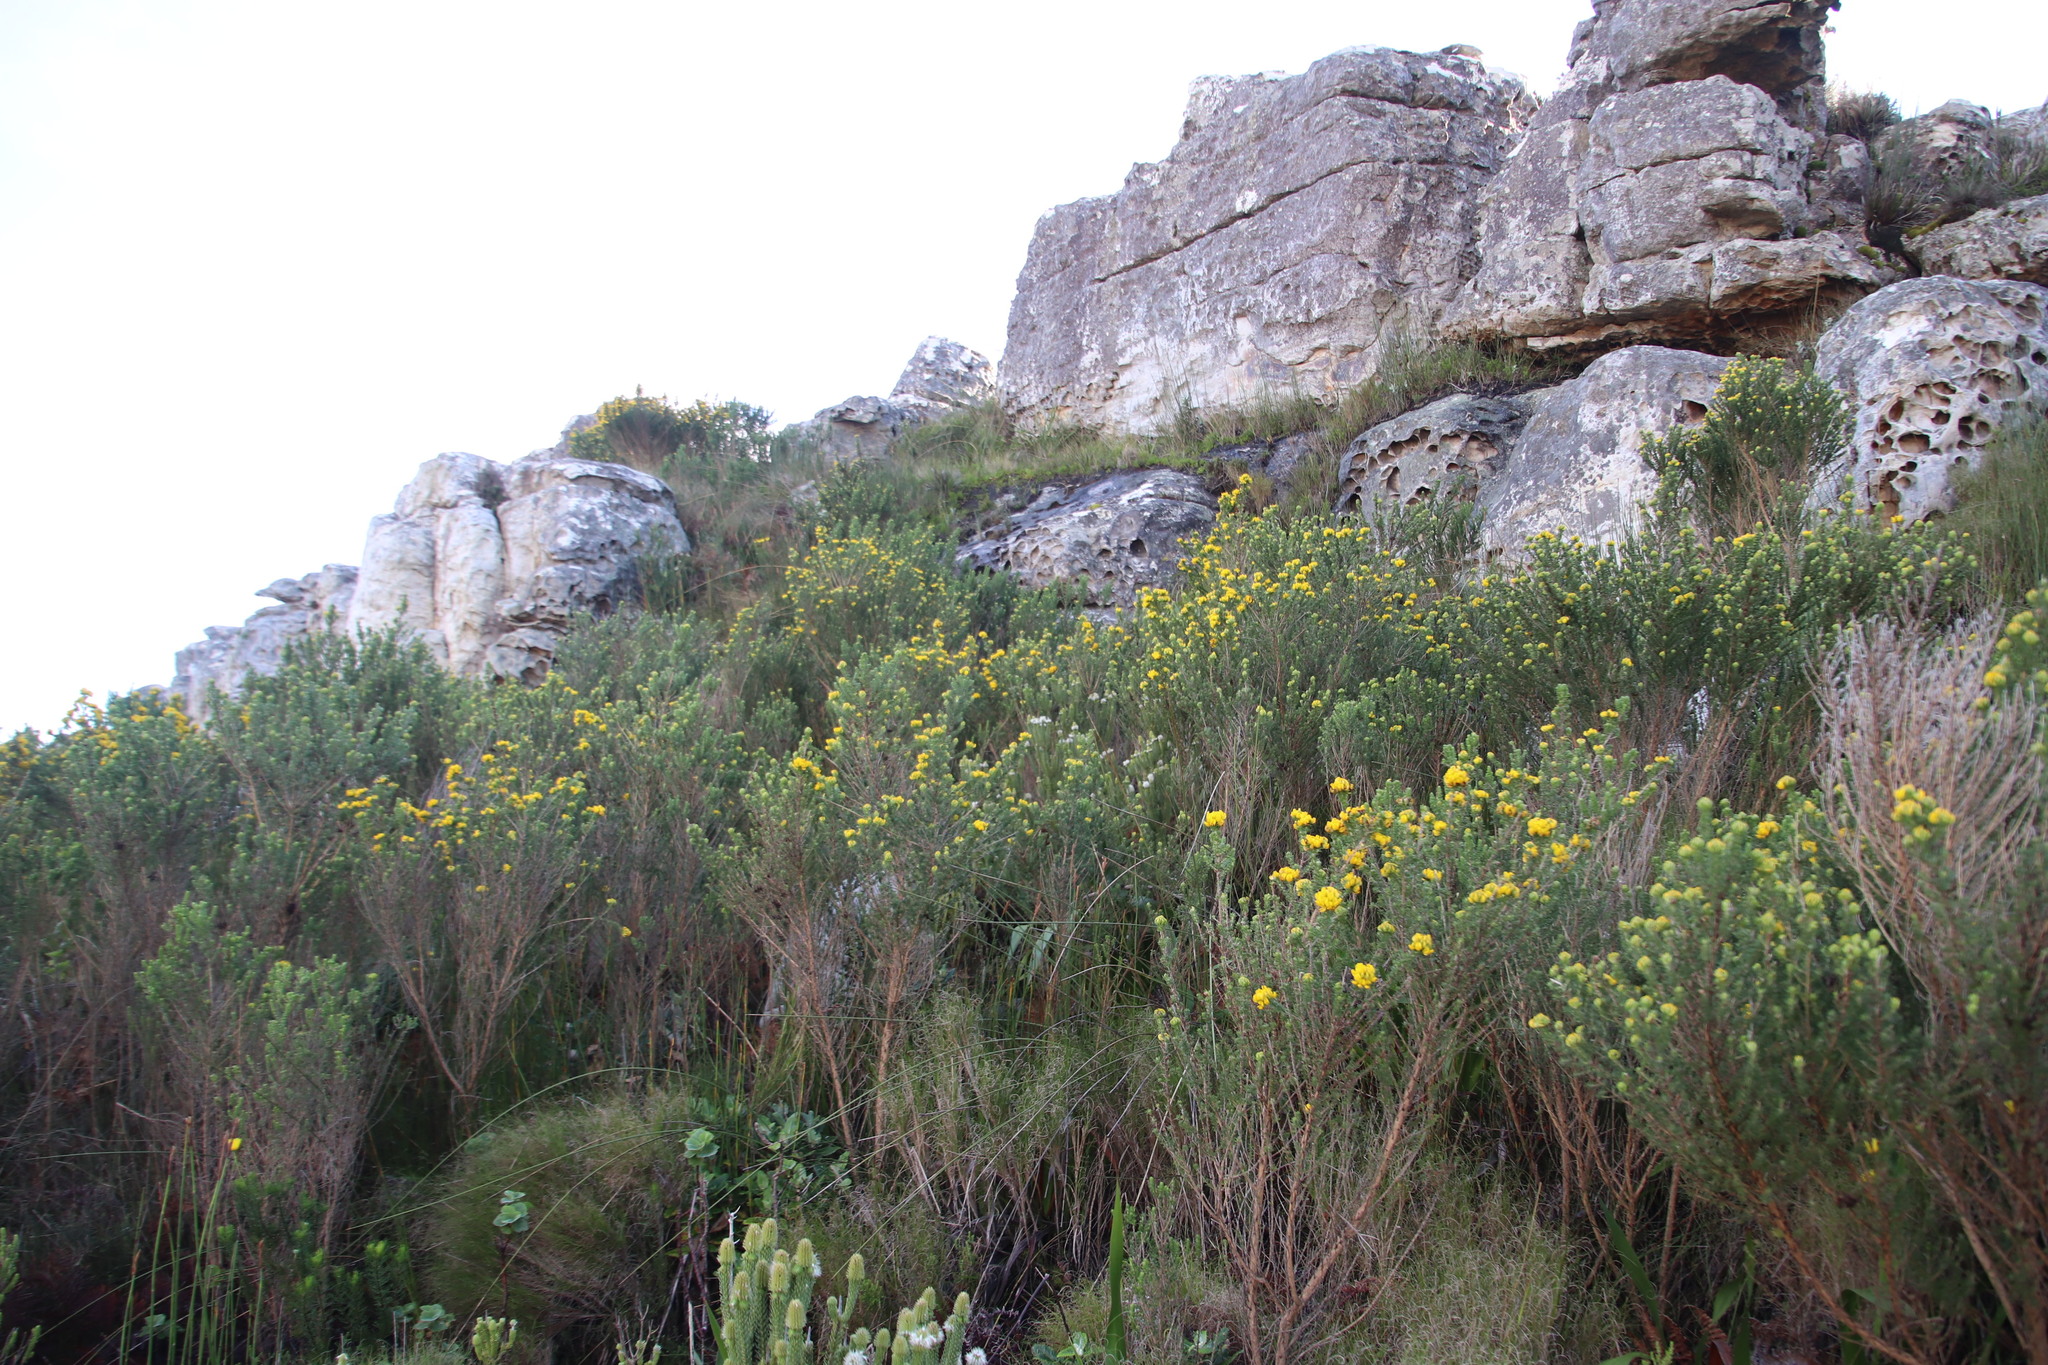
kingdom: Plantae
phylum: Tracheophyta
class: Magnoliopsida
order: Fabales
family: Fabaceae
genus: Aspalathus
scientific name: Aspalathus capitata
